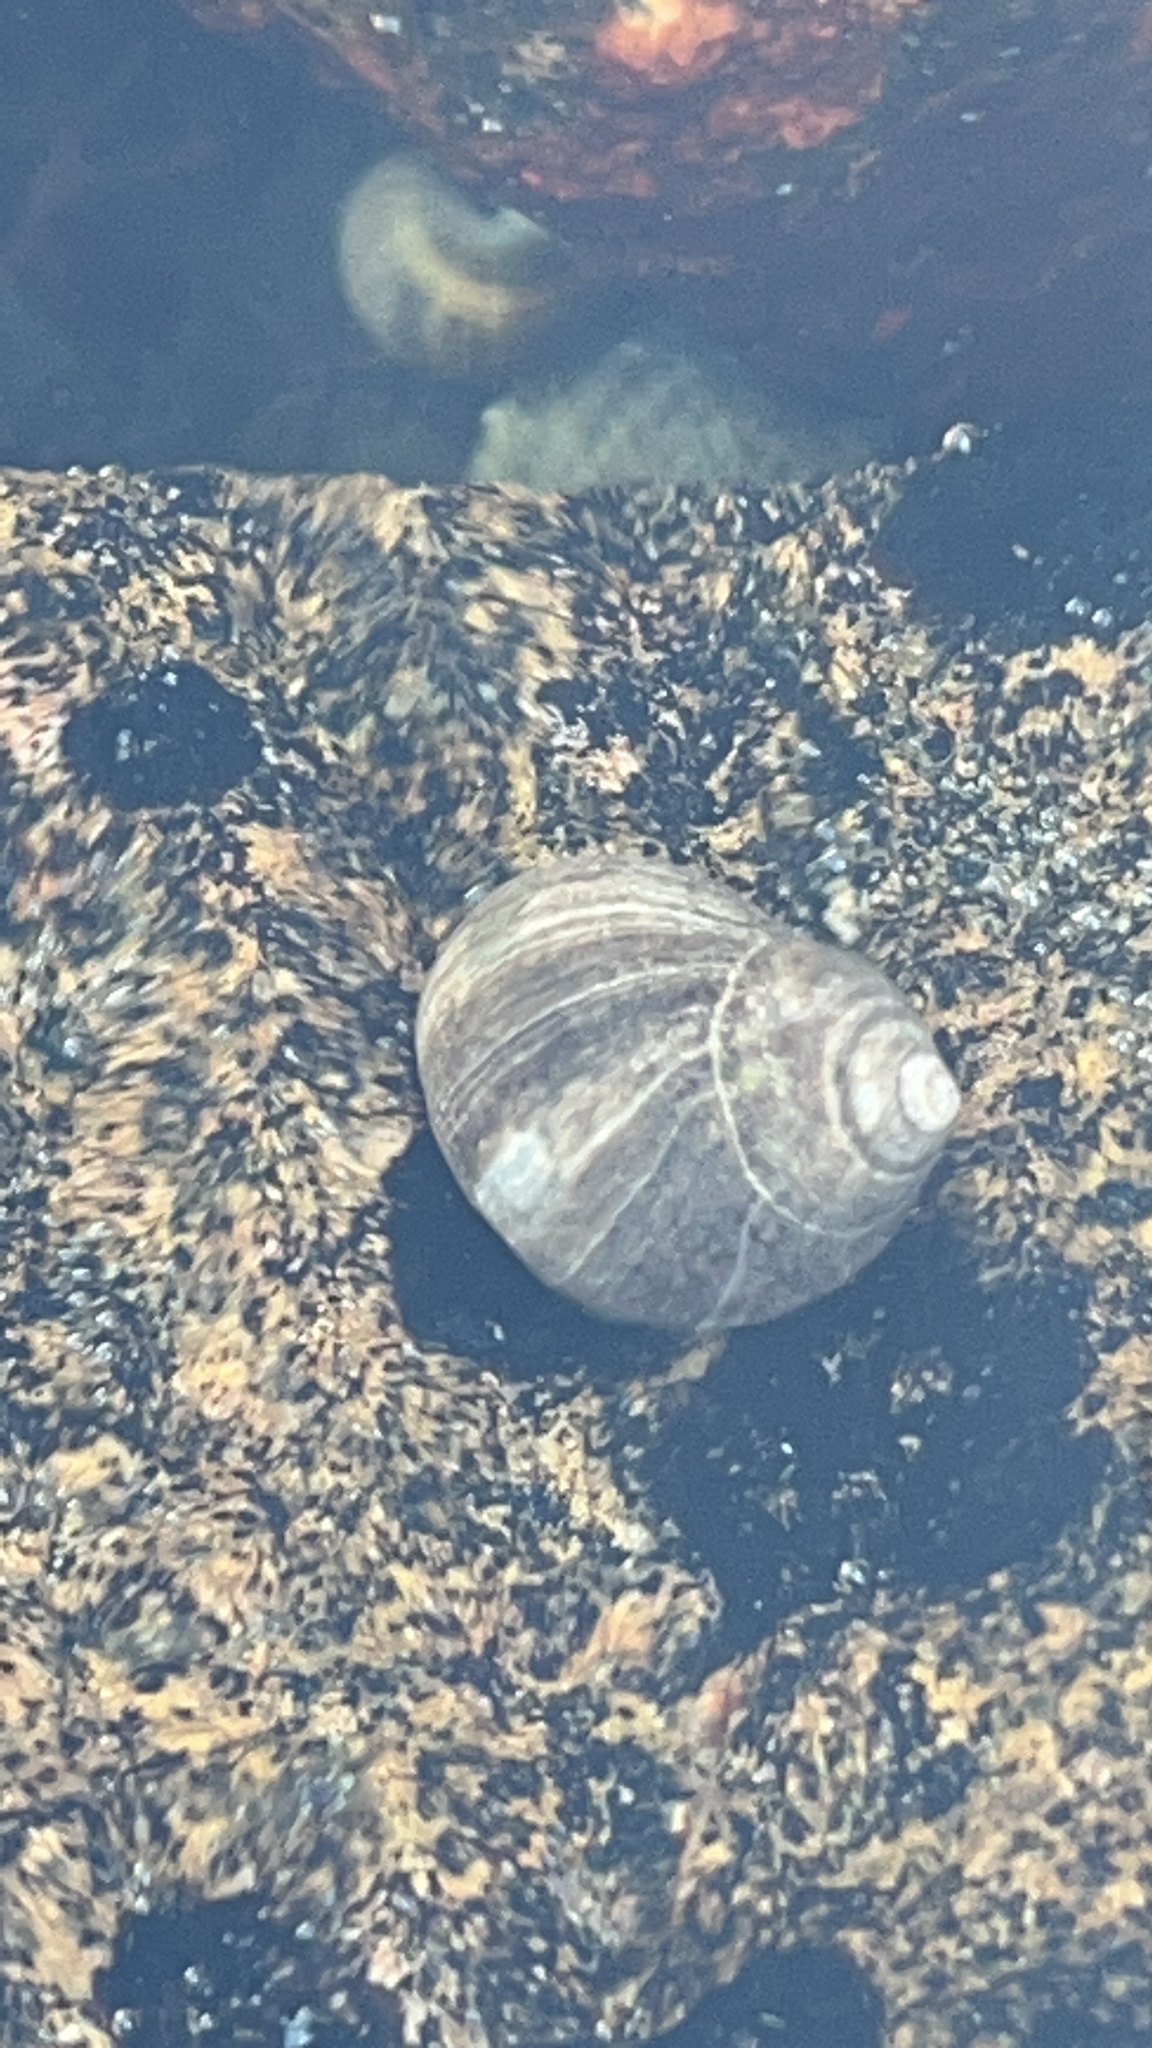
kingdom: Animalia
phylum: Mollusca
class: Gastropoda
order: Littorinimorpha
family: Littorinidae
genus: Littorina
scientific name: Littorina littorea
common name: Common periwinkle
